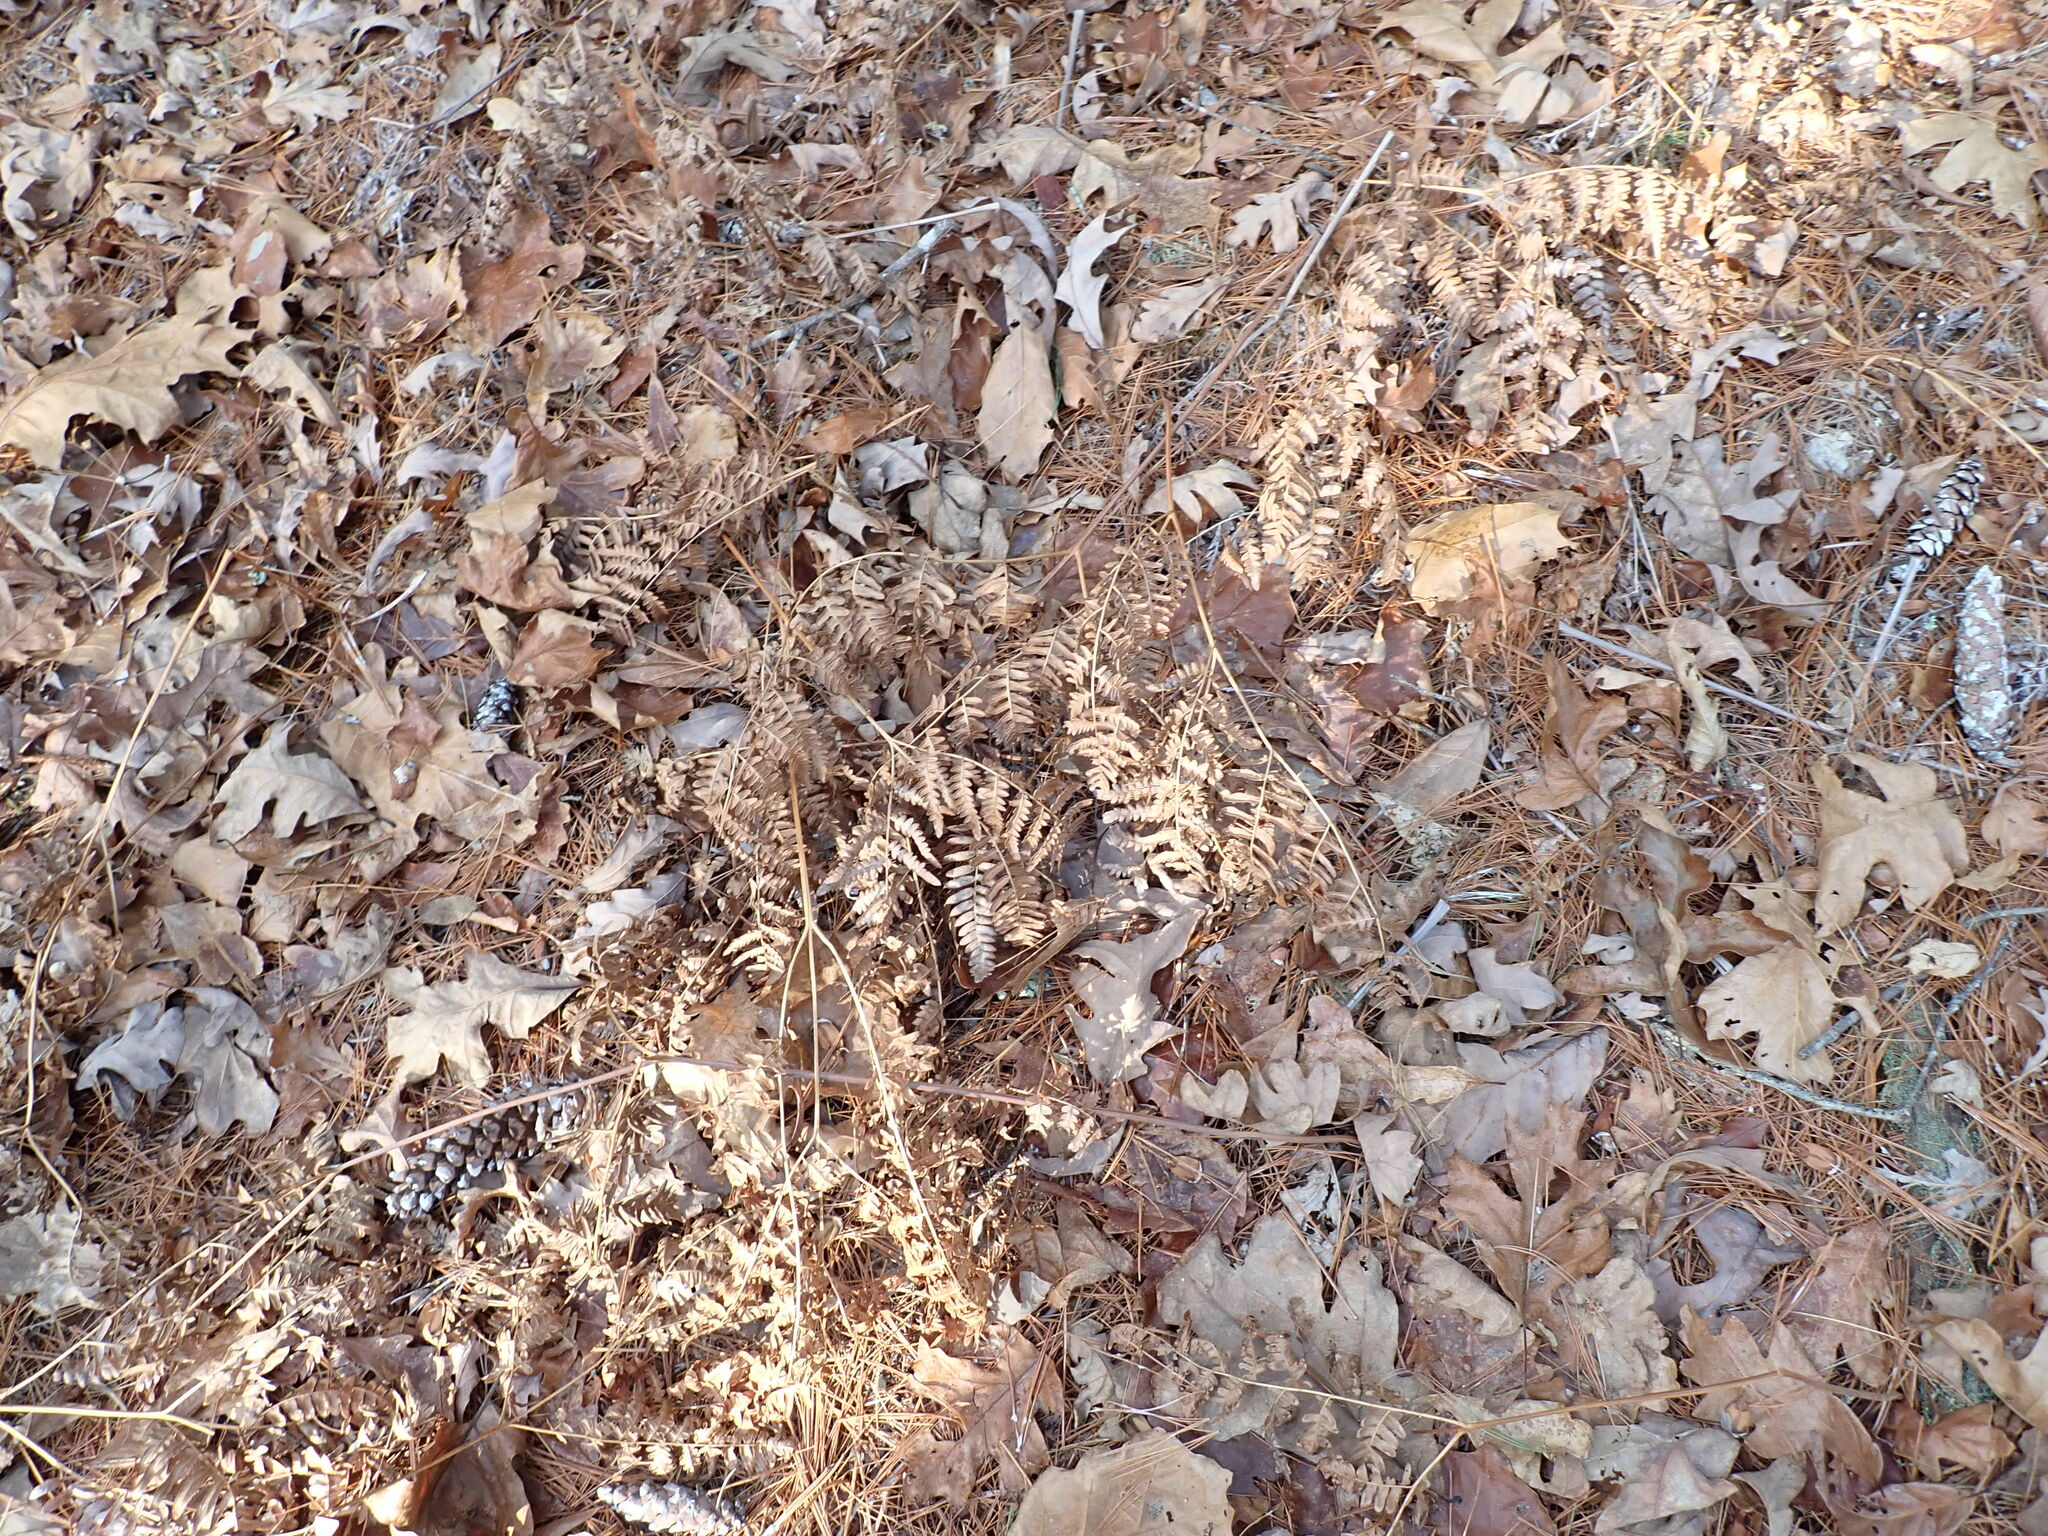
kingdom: Plantae
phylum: Tracheophyta
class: Polypodiopsida
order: Polypodiales
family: Dennstaedtiaceae
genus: Pteridium
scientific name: Pteridium aquilinum
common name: Bracken
